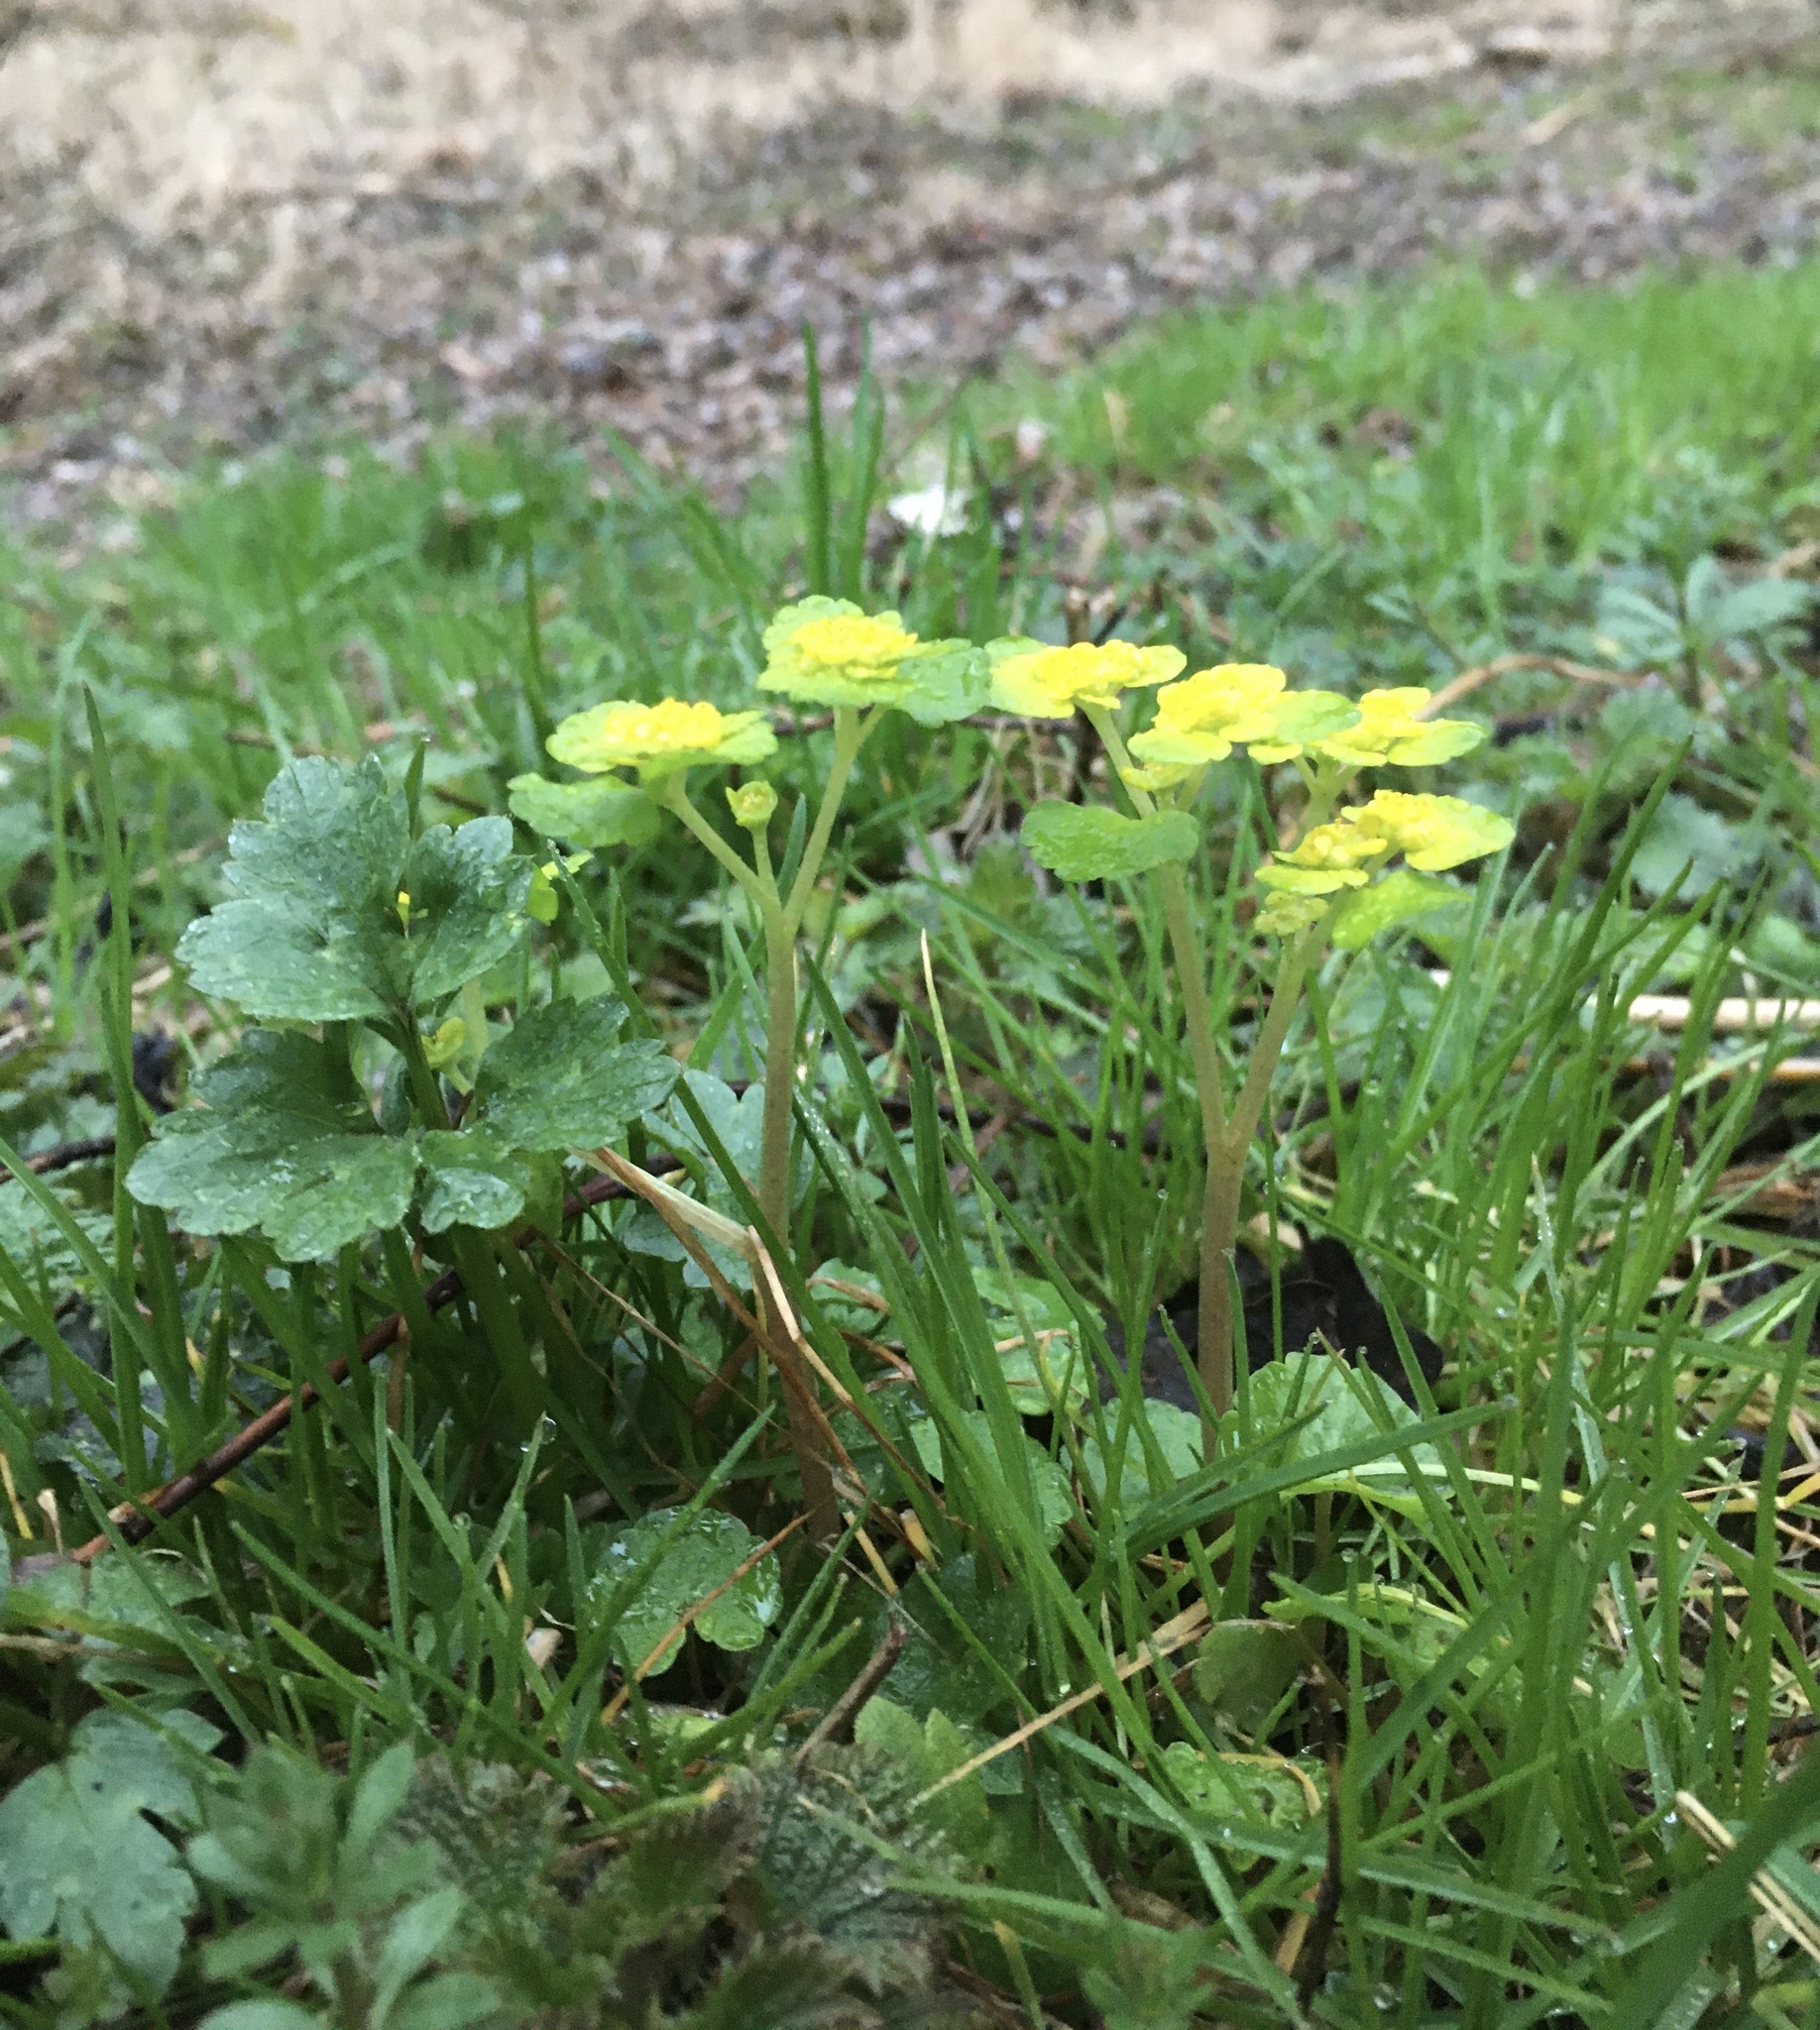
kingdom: Plantae
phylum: Tracheophyta
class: Magnoliopsida
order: Saxifragales
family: Saxifragaceae
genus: Chrysosplenium
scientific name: Chrysosplenium alternifolium
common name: Alternate-leaved golden-saxifrage
